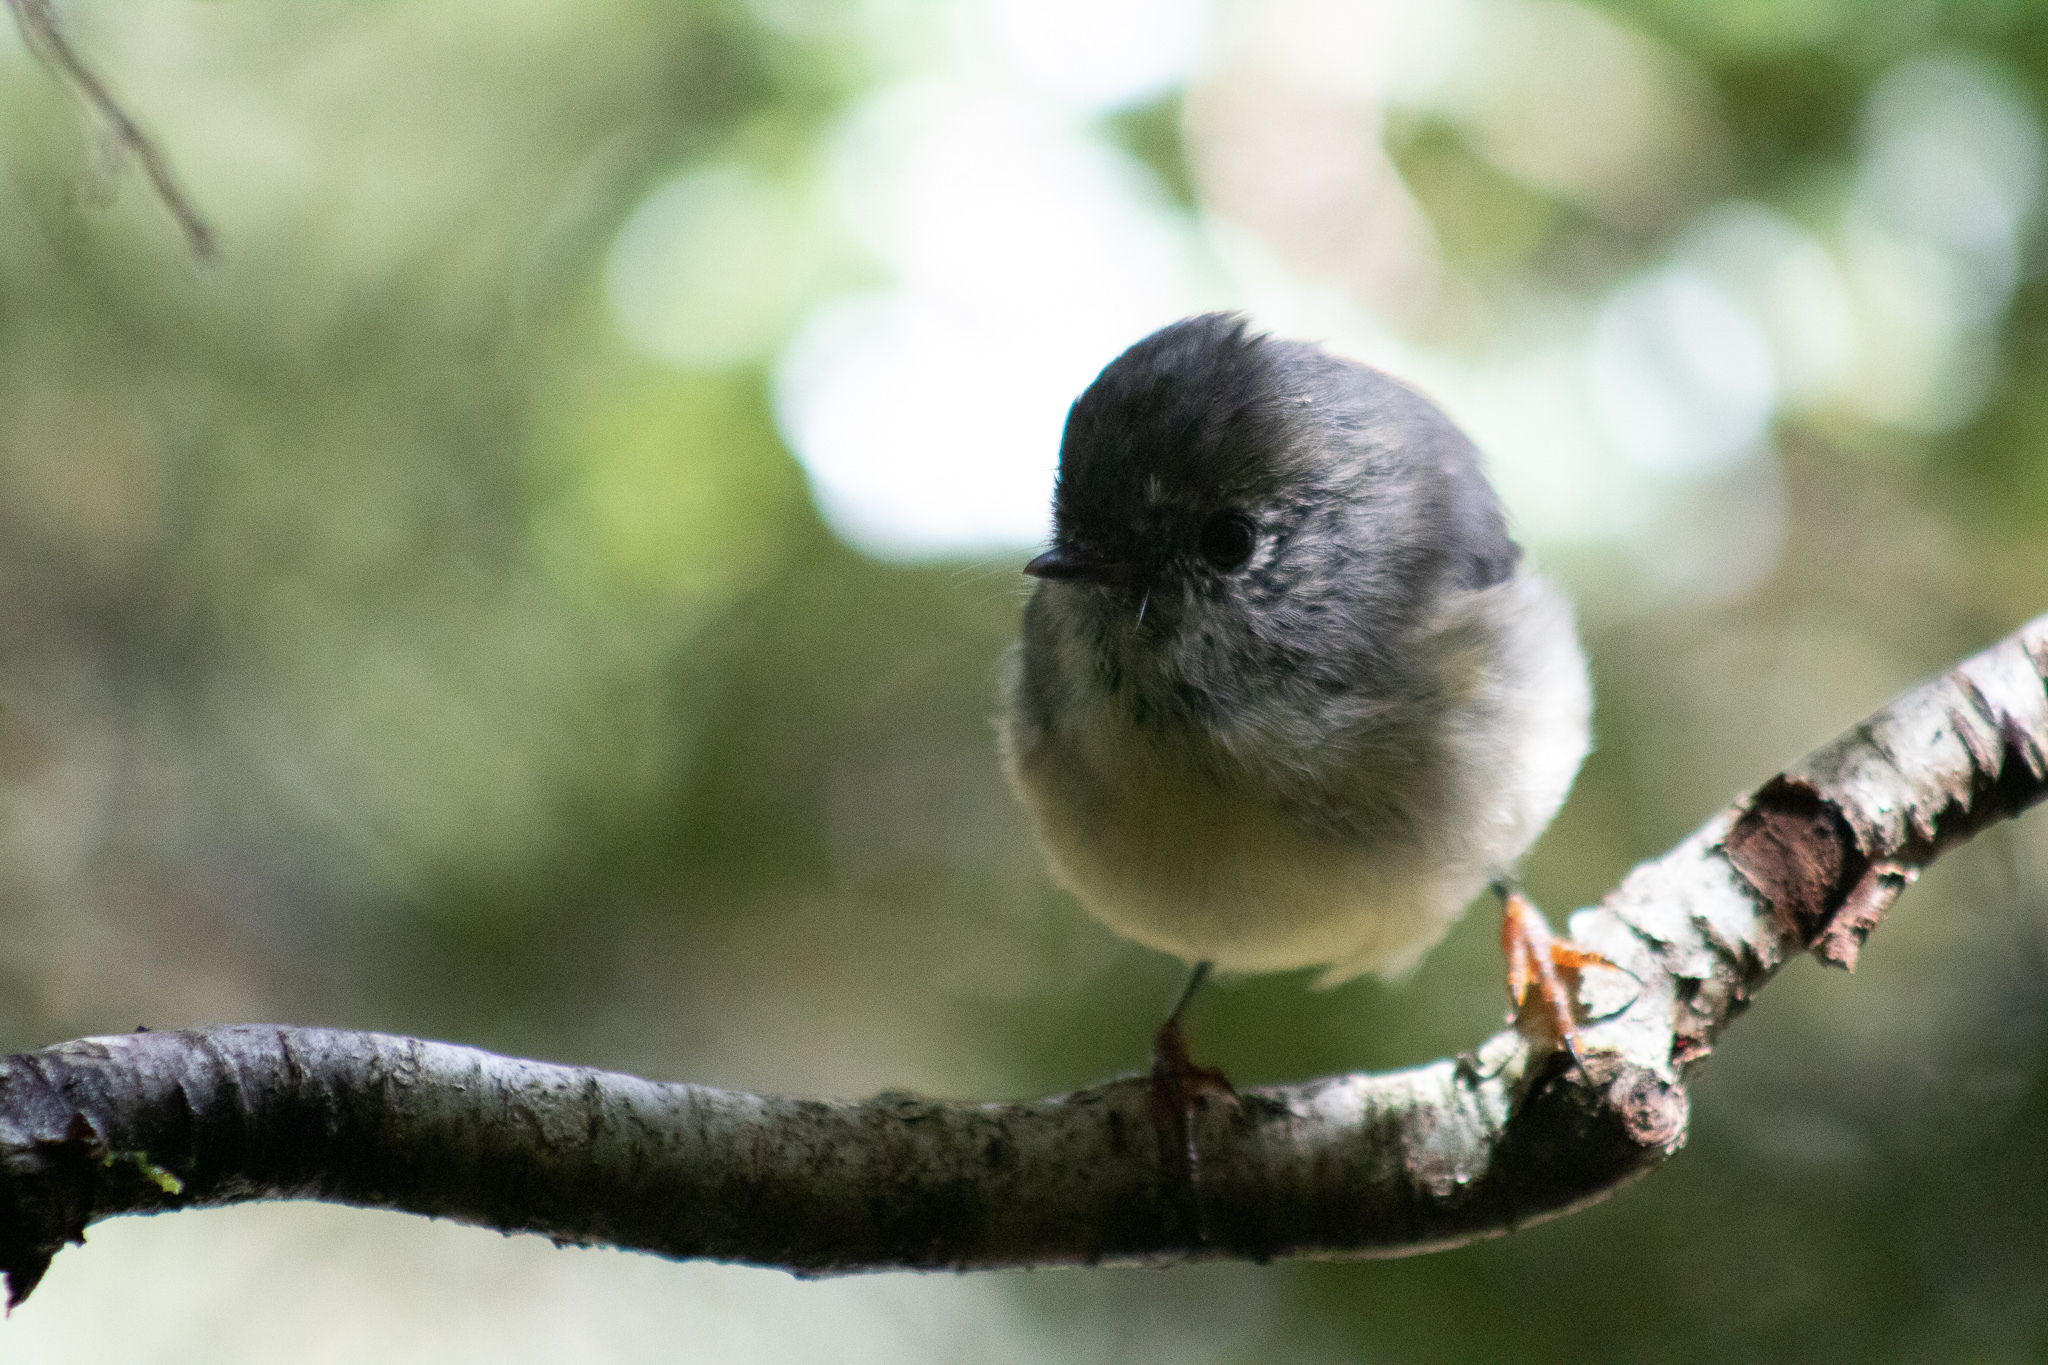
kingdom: Animalia
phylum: Chordata
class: Aves
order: Passeriformes
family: Petroicidae
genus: Petroica
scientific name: Petroica macrocephala
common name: Tomtit
